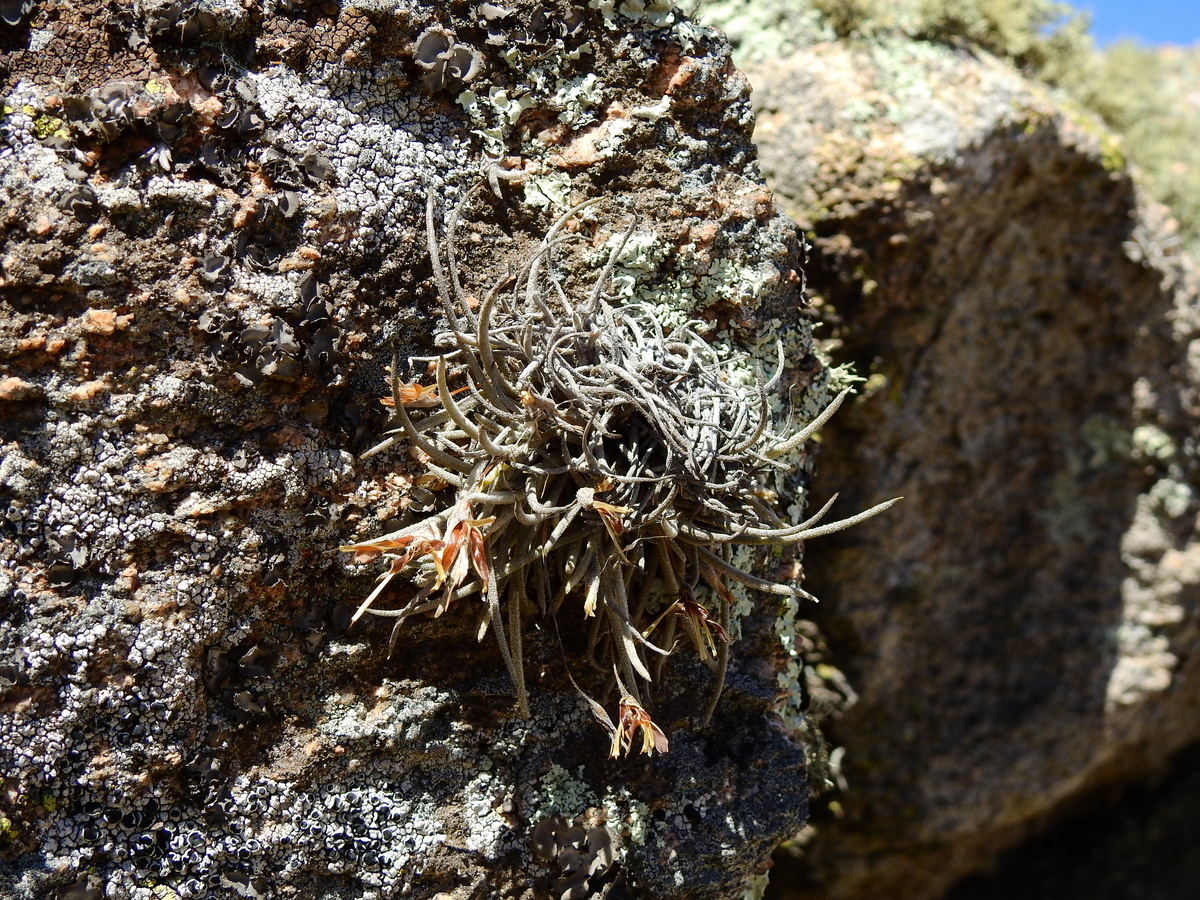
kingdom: Plantae
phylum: Tracheophyta
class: Liliopsida
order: Poales
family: Bromeliaceae
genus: Tillandsia
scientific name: Tillandsia virescens
